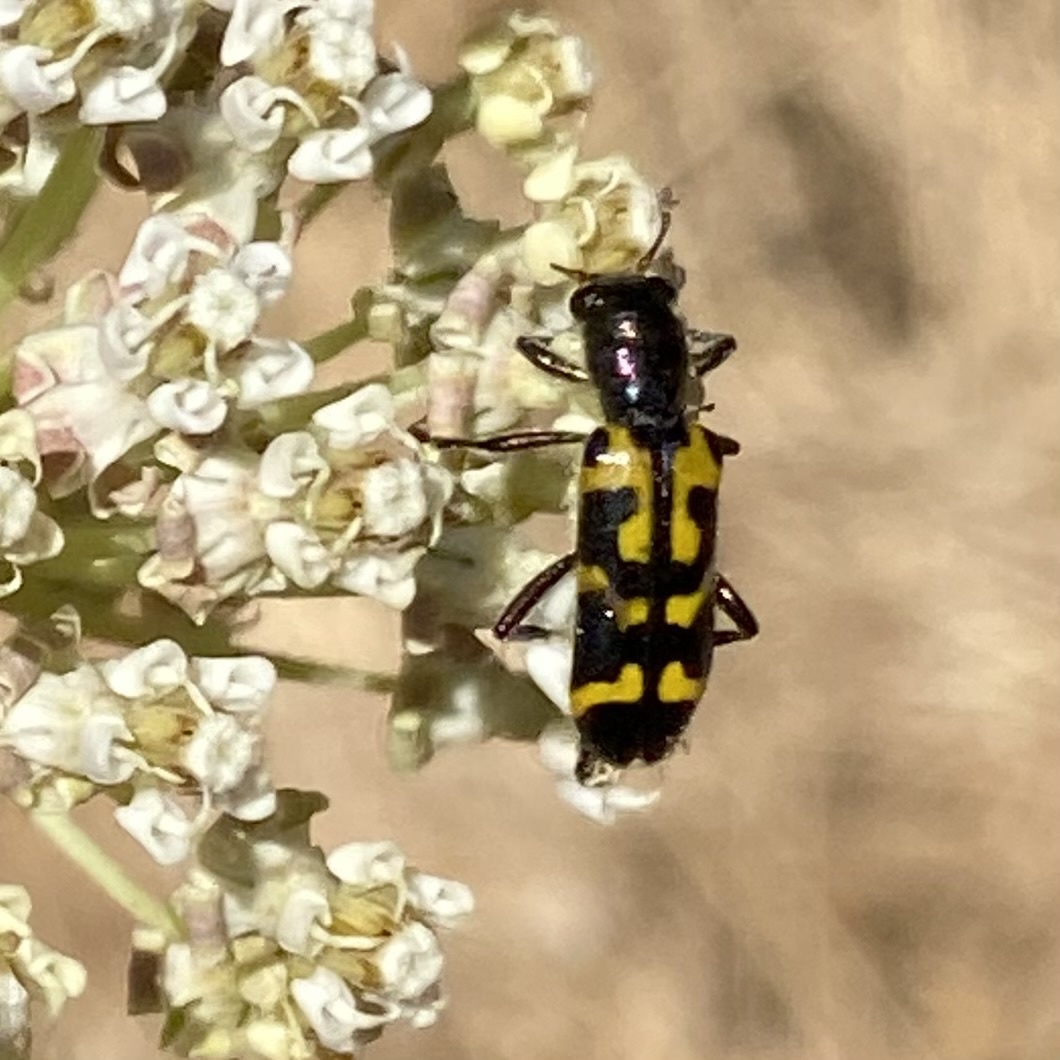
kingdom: Animalia
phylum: Arthropoda
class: Insecta
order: Coleoptera
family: Cleridae
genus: Trichodes
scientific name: Trichodes ornatus
